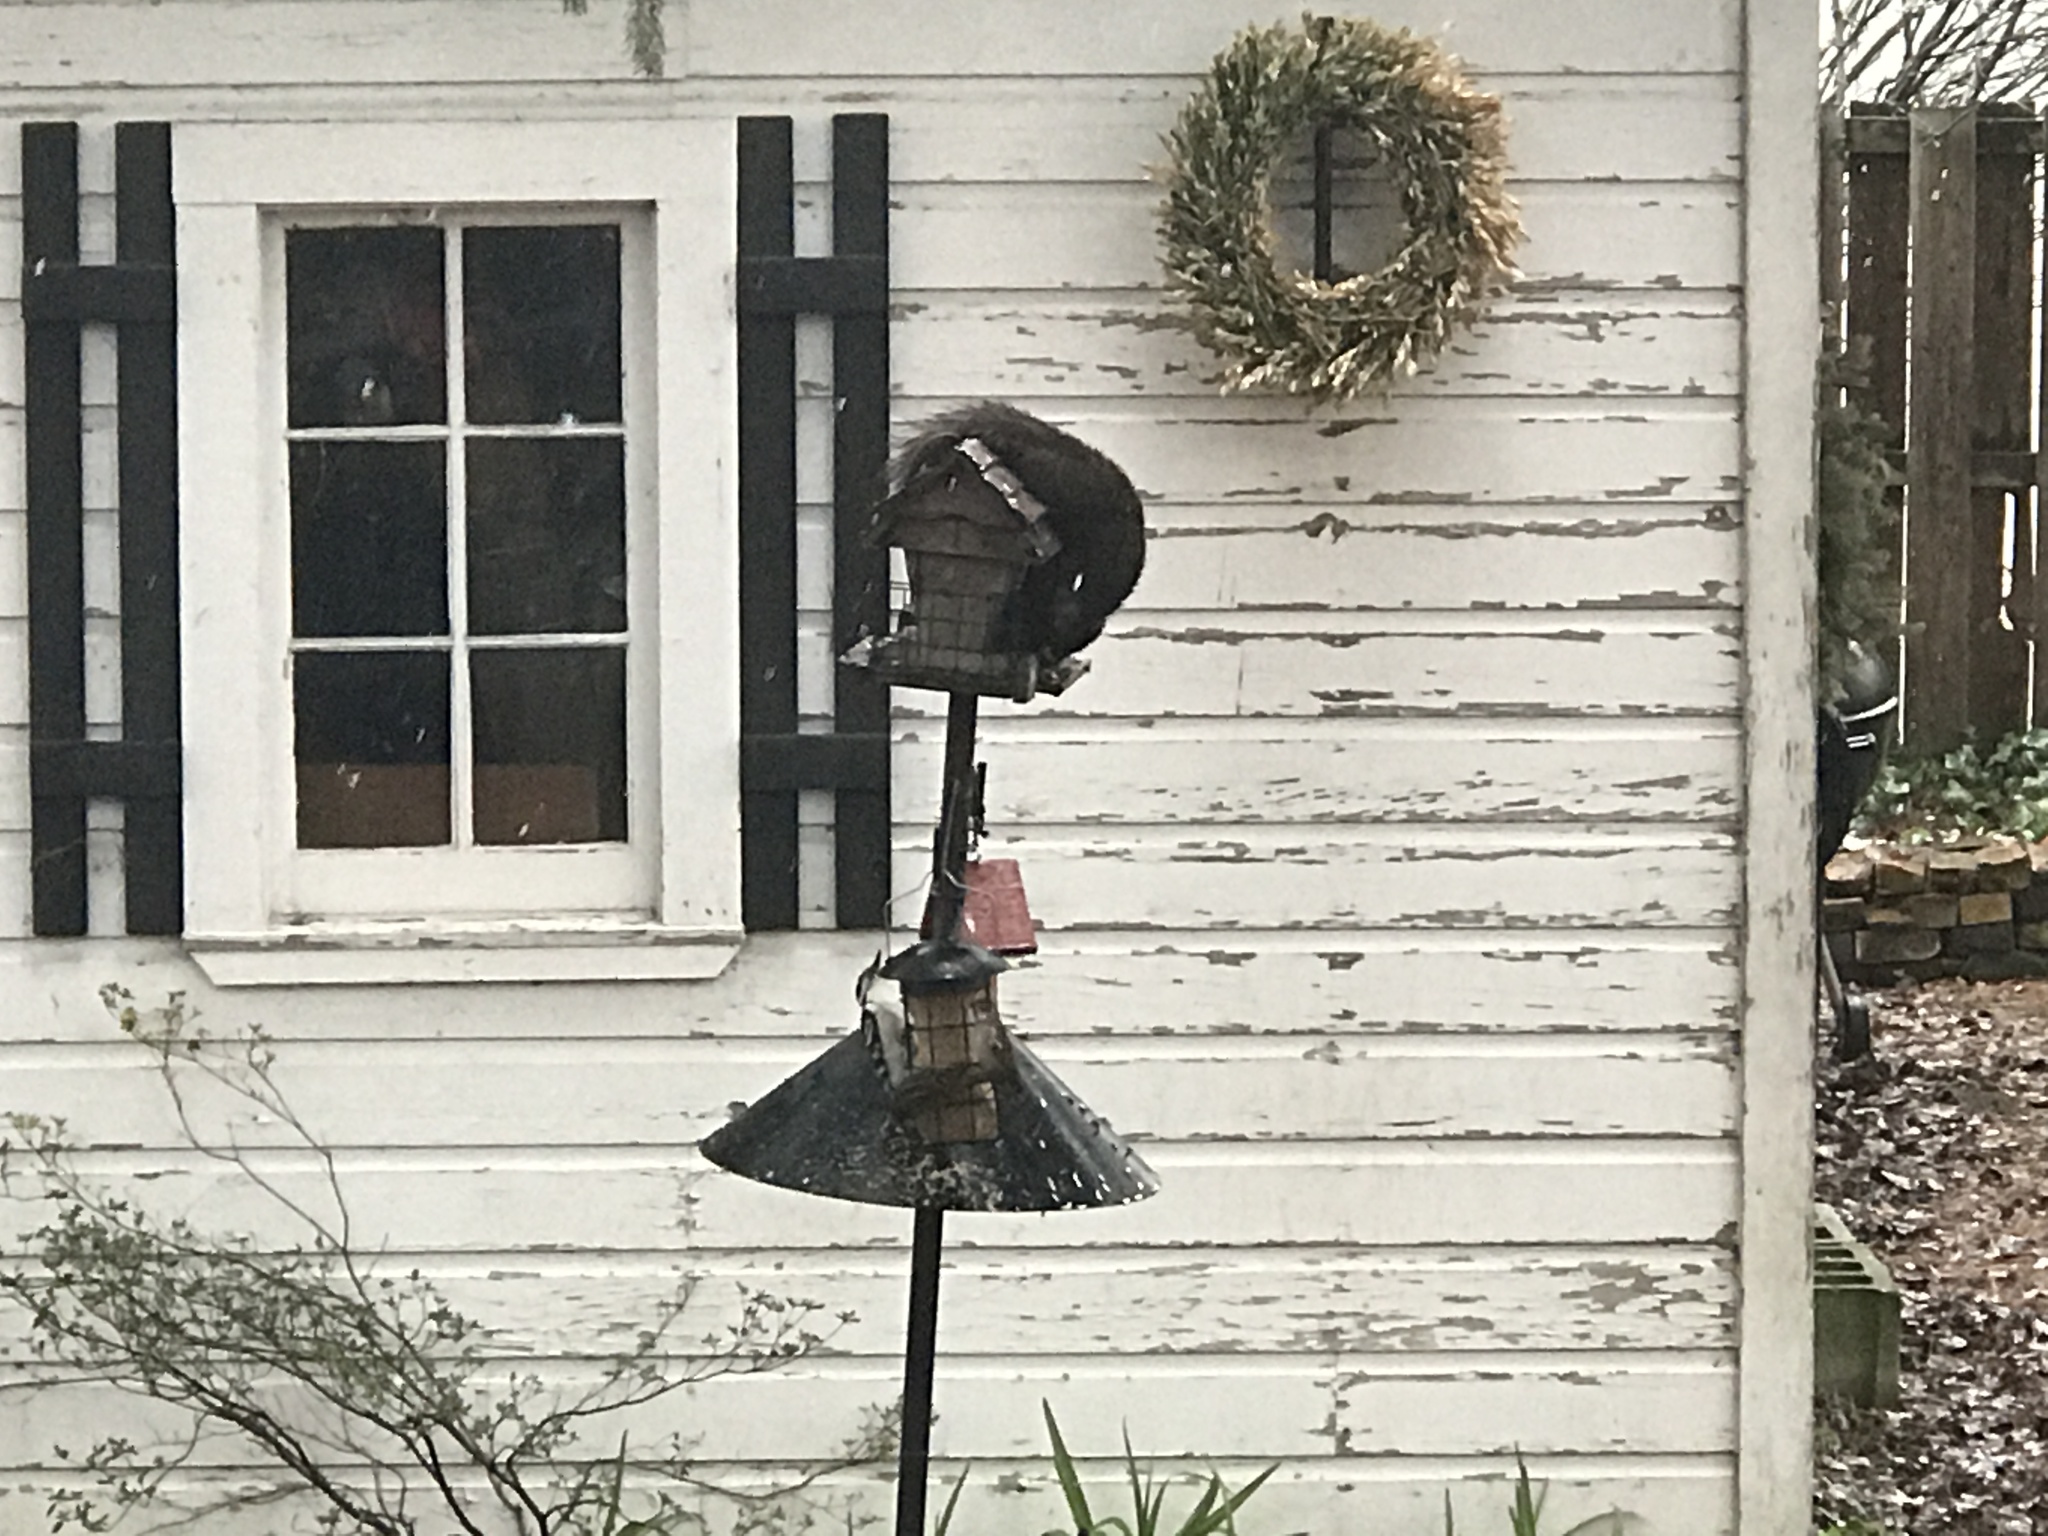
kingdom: Animalia
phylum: Chordata
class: Aves
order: Piciformes
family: Picidae
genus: Leuconotopicus
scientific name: Leuconotopicus villosus
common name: Hairy woodpecker
